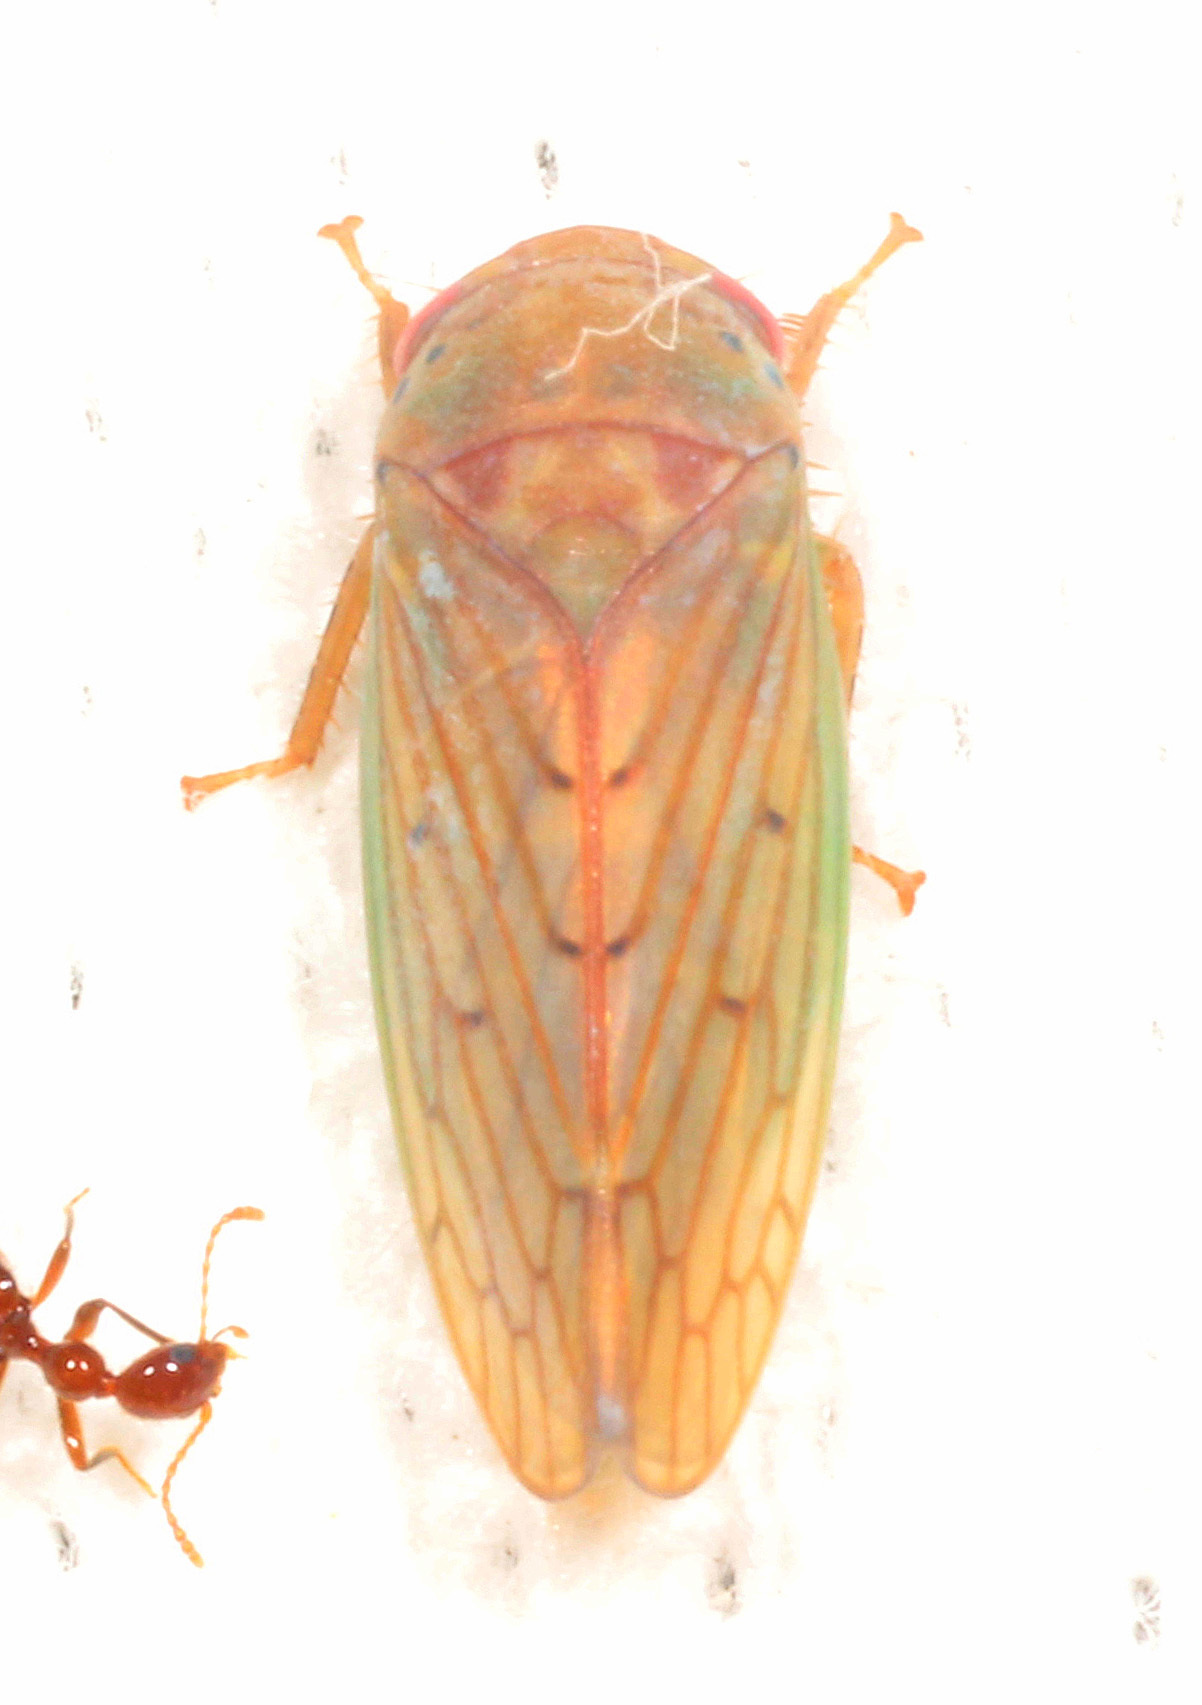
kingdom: Animalia
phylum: Arthropoda
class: Insecta
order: Hemiptera
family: Cicadellidae
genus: Polana
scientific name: Polana quadrinotata
